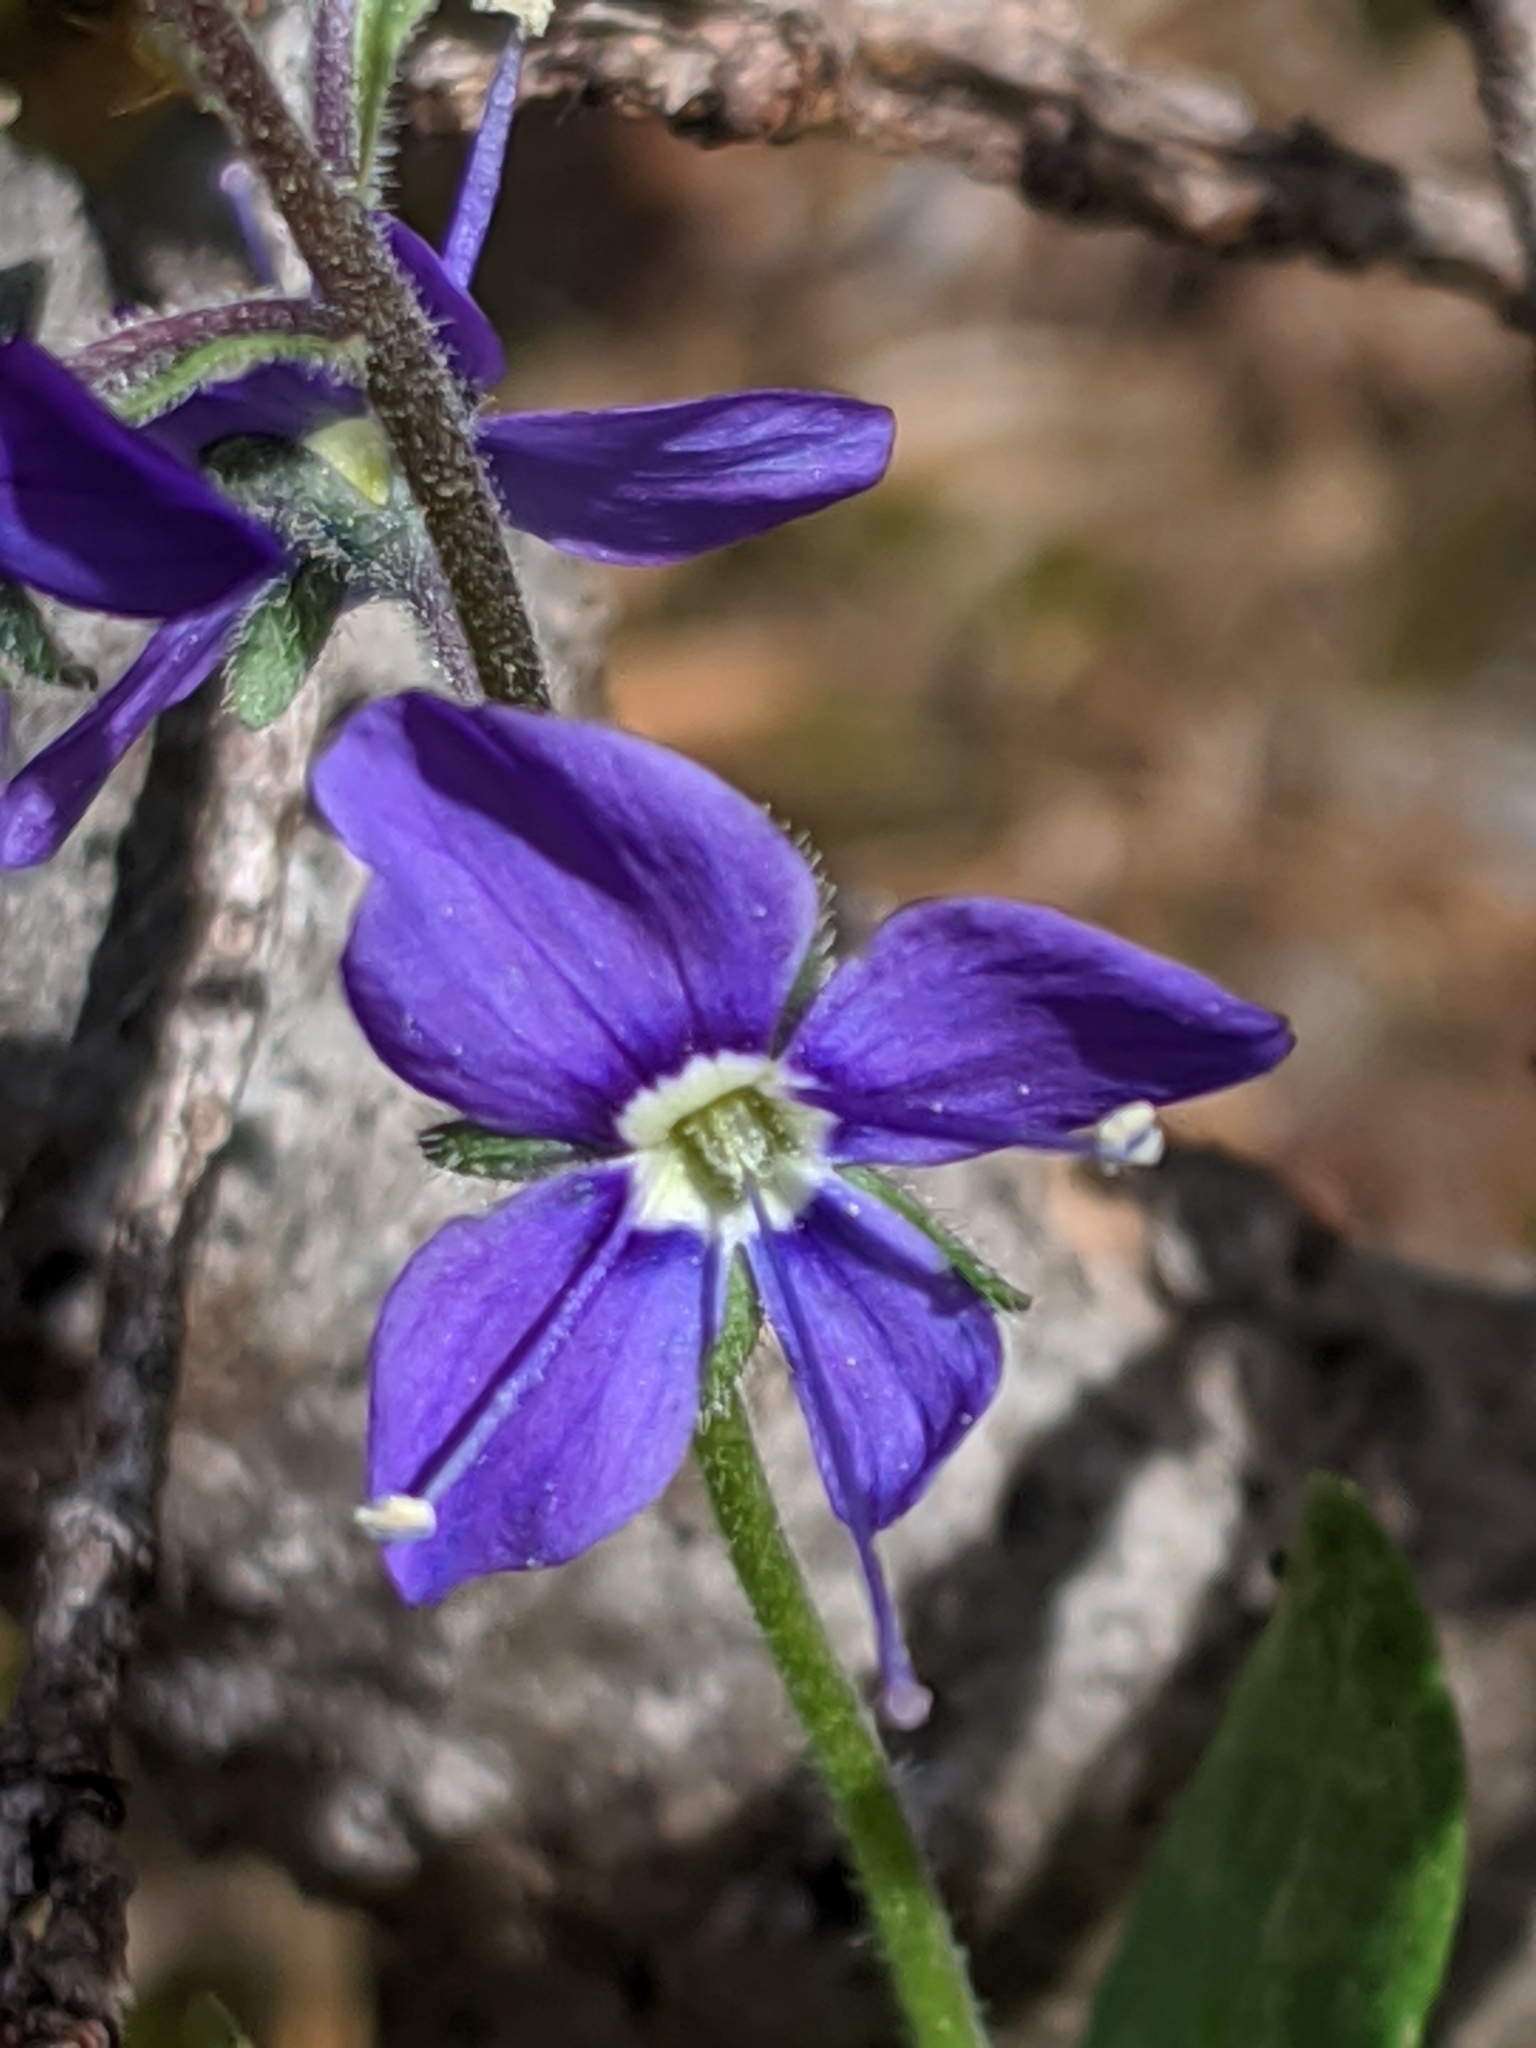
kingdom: Plantae
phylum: Tracheophyta
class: Magnoliopsida
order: Lamiales
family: Plantaginaceae
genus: Veronica
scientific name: Veronica cusickii
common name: Cusick's speedwell
